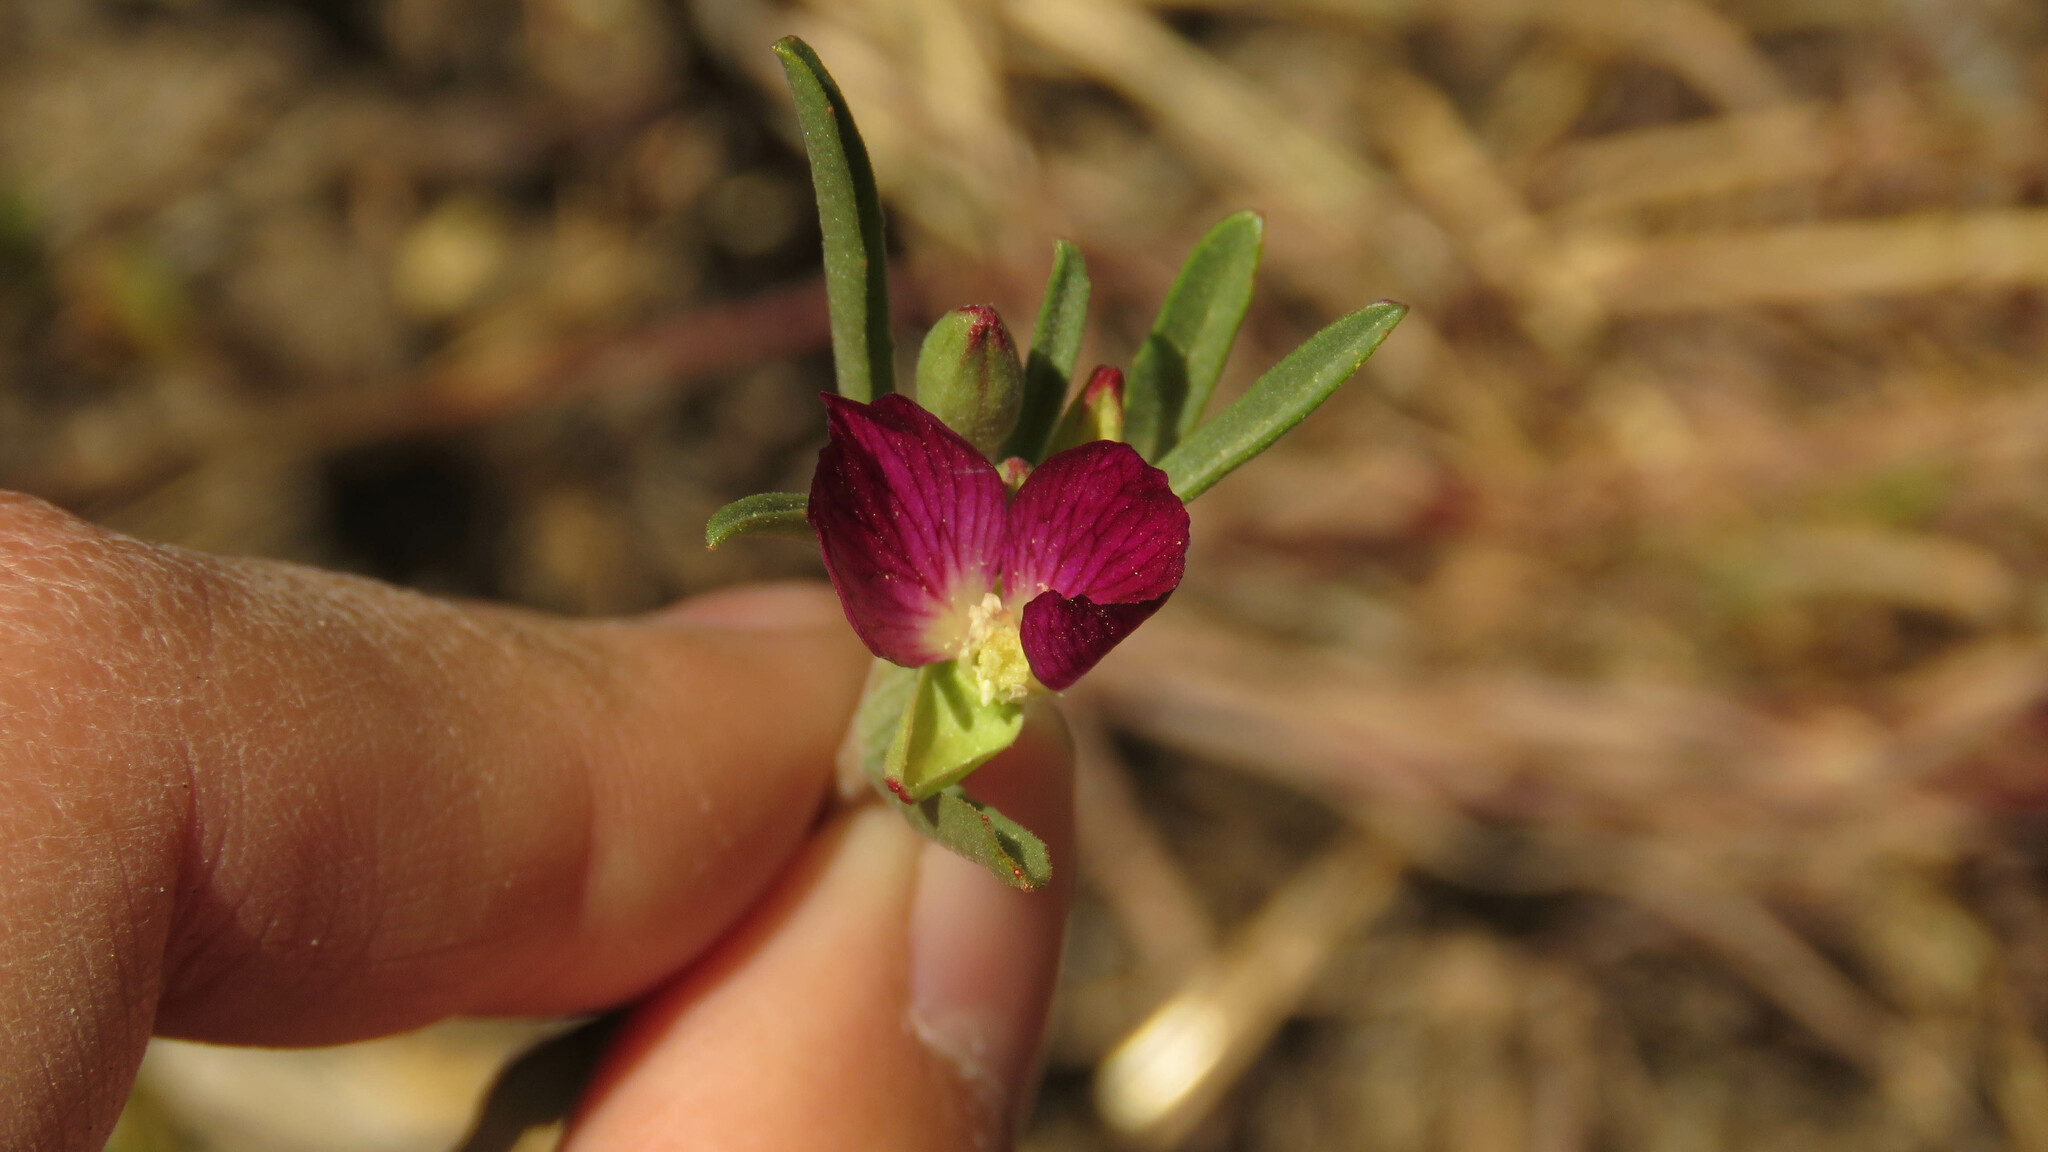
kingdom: Plantae
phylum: Tracheophyta
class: Magnoliopsida
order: Myrtales
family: Onagraceae
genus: Clarkia
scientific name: Clarkia tenella
